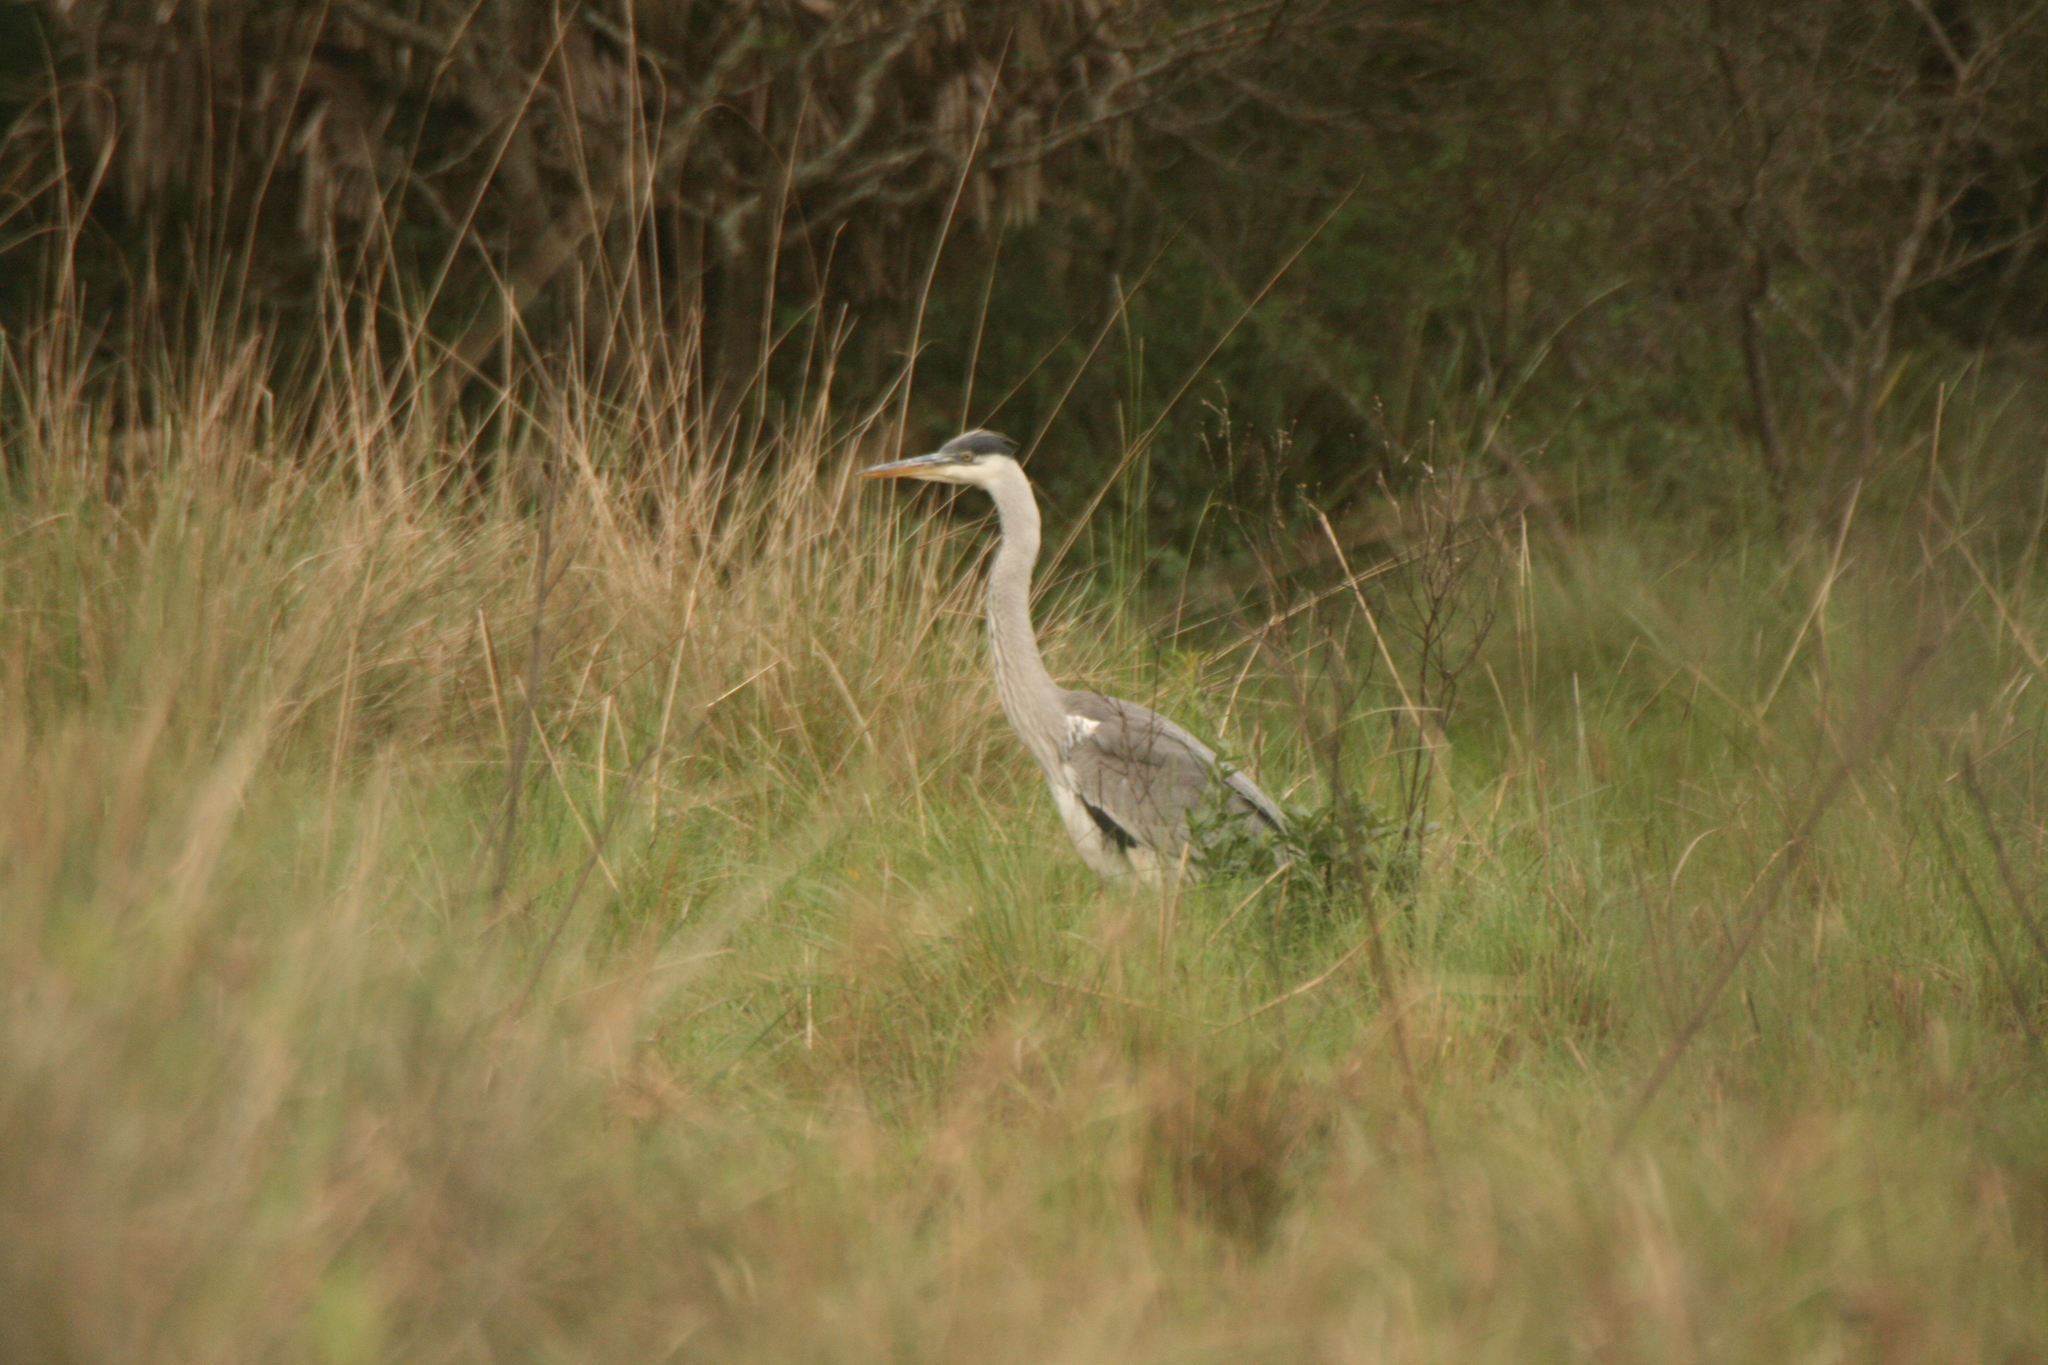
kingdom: Animalia
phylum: Chordata
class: Aves
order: Pelecaniformes
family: Ardeidae
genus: Ardea
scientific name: Ardea cocoi
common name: Cocoi heron
